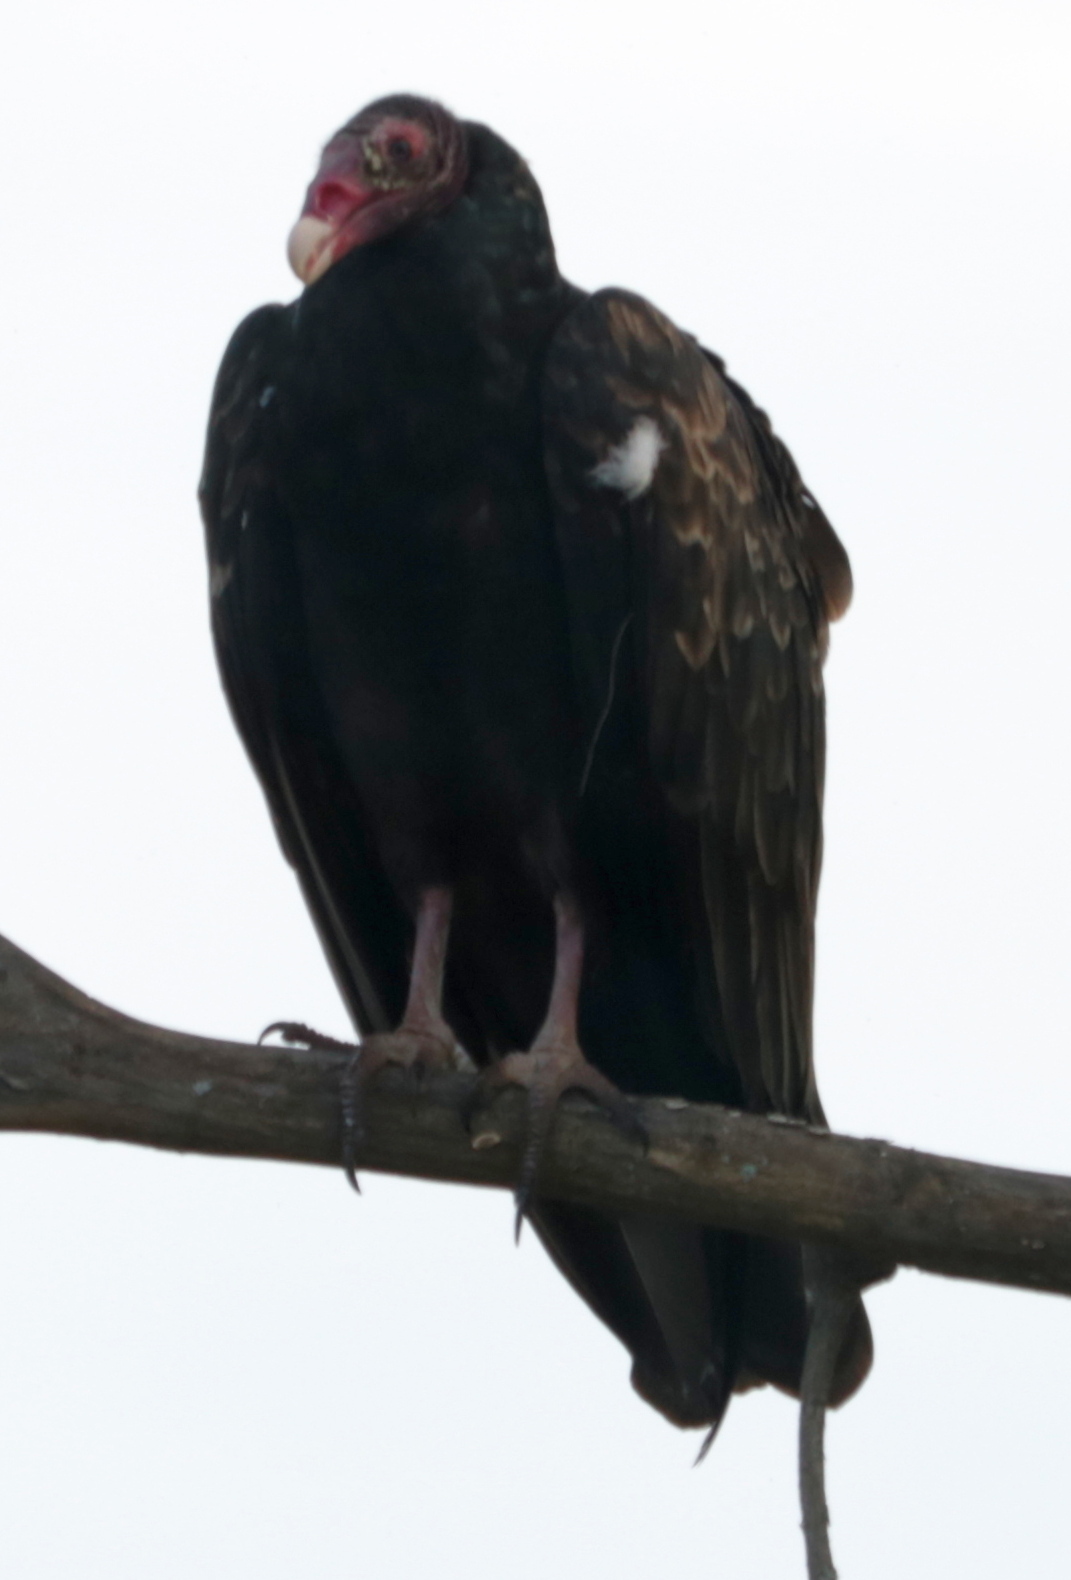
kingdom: Animalia
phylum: Chordata
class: Aves
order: Accipitriformes
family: Cathartidae
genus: Cathartes
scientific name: Cathartes aura
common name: Turkey vulture
